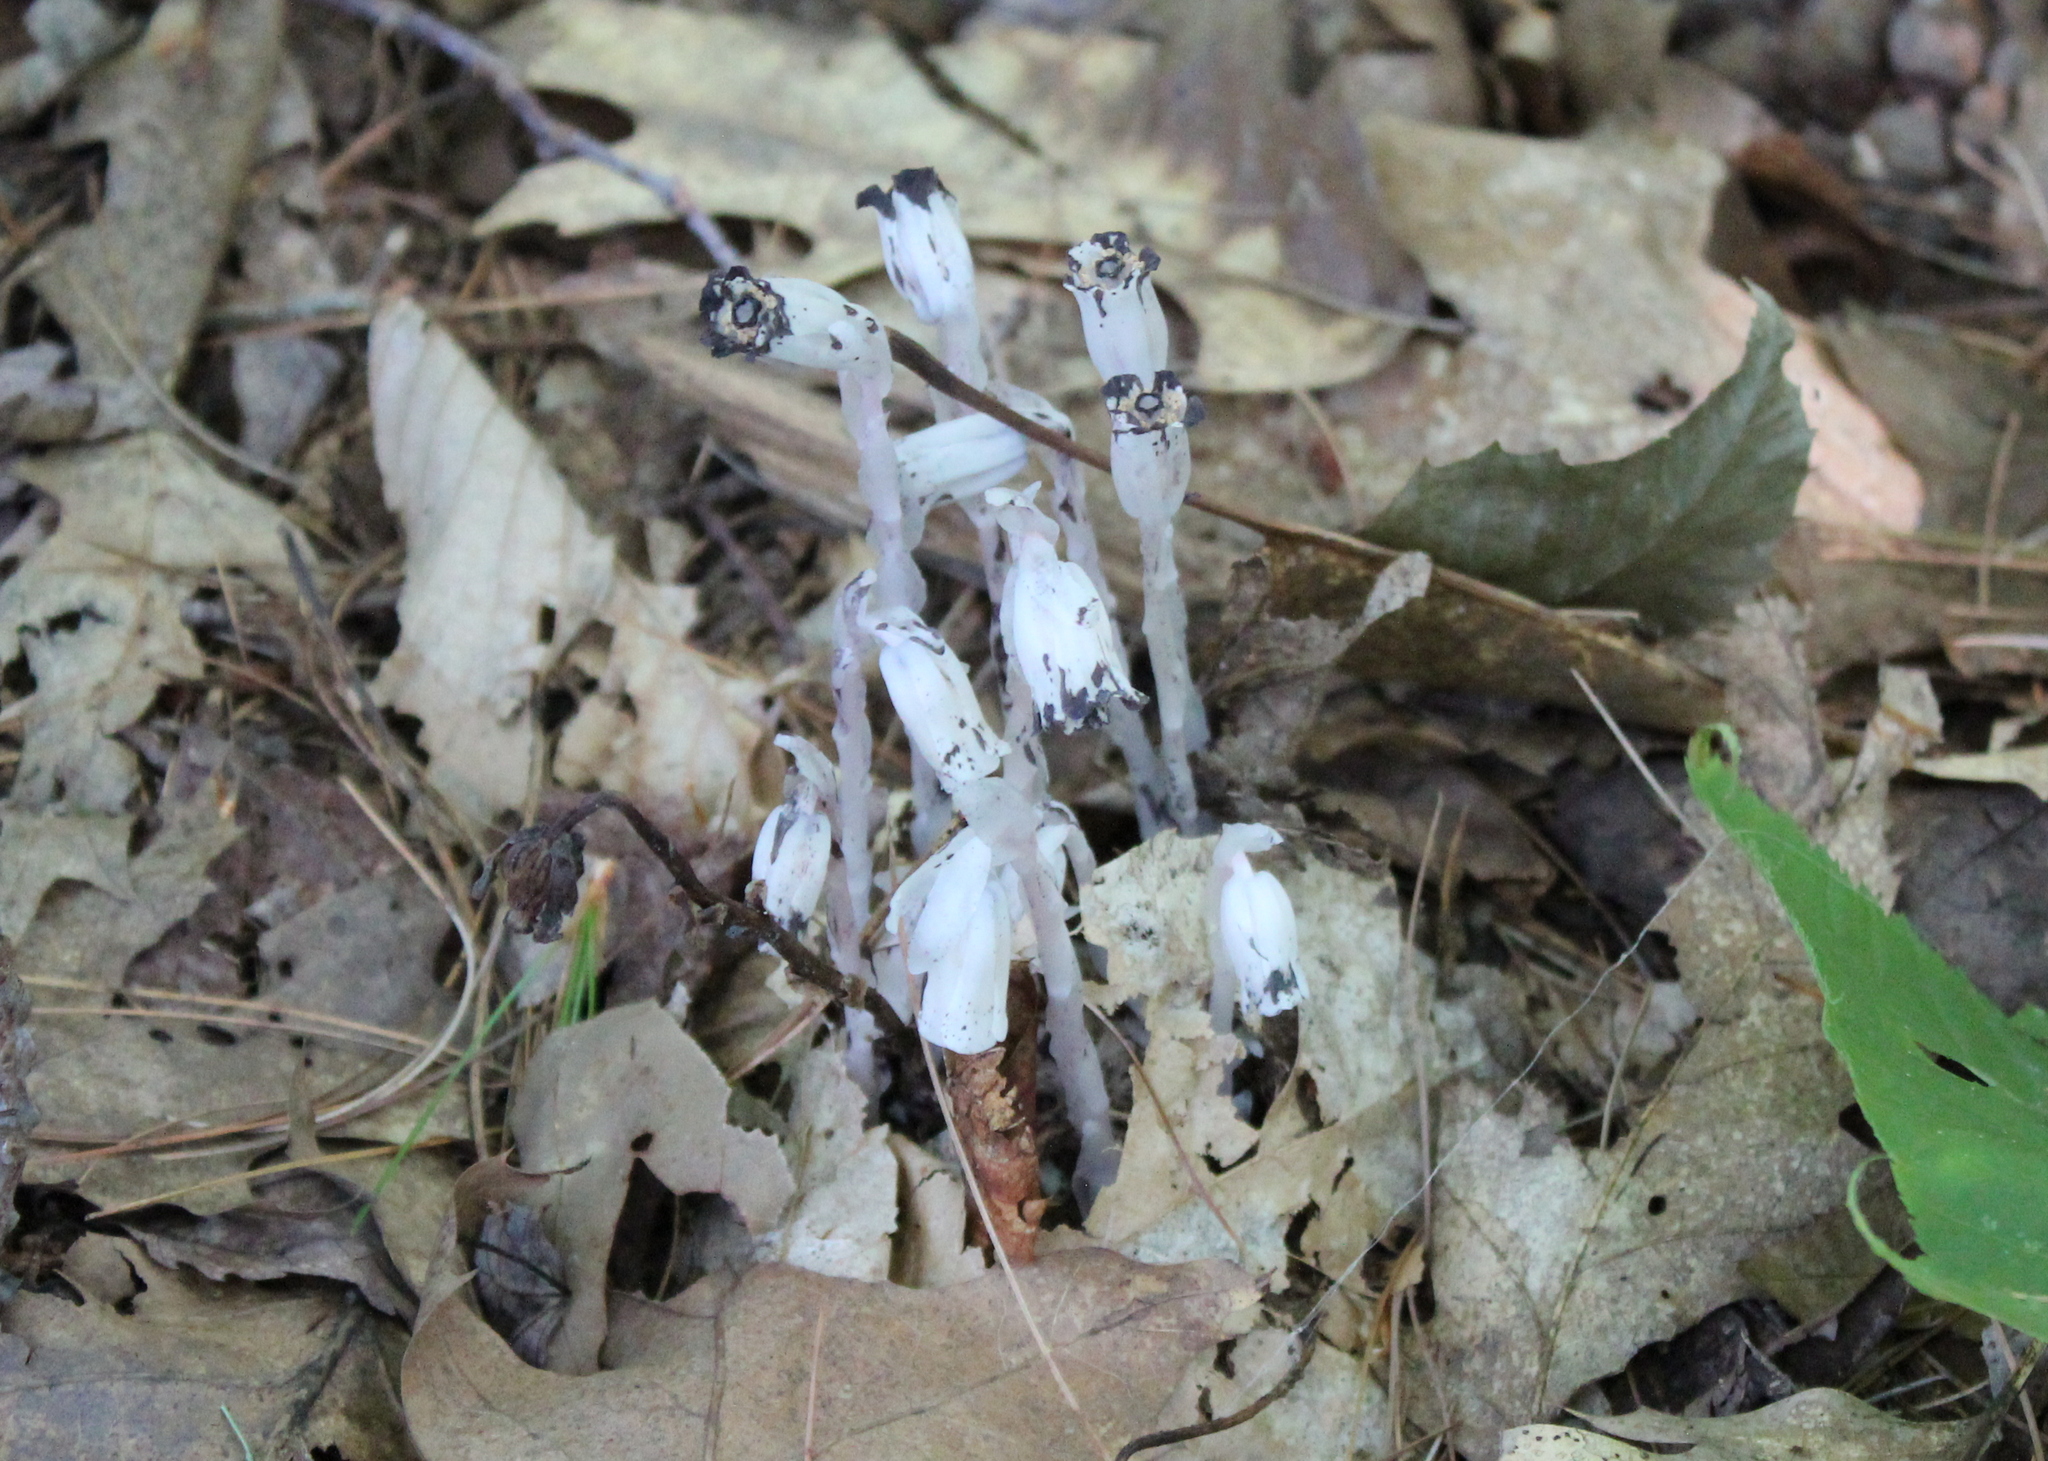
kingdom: Plantae
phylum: Tracheophyta
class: Magnoliopsida
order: Ericales
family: Ericaceae
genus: Monotropa
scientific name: Monotropa uniflora
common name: Convulsion root
